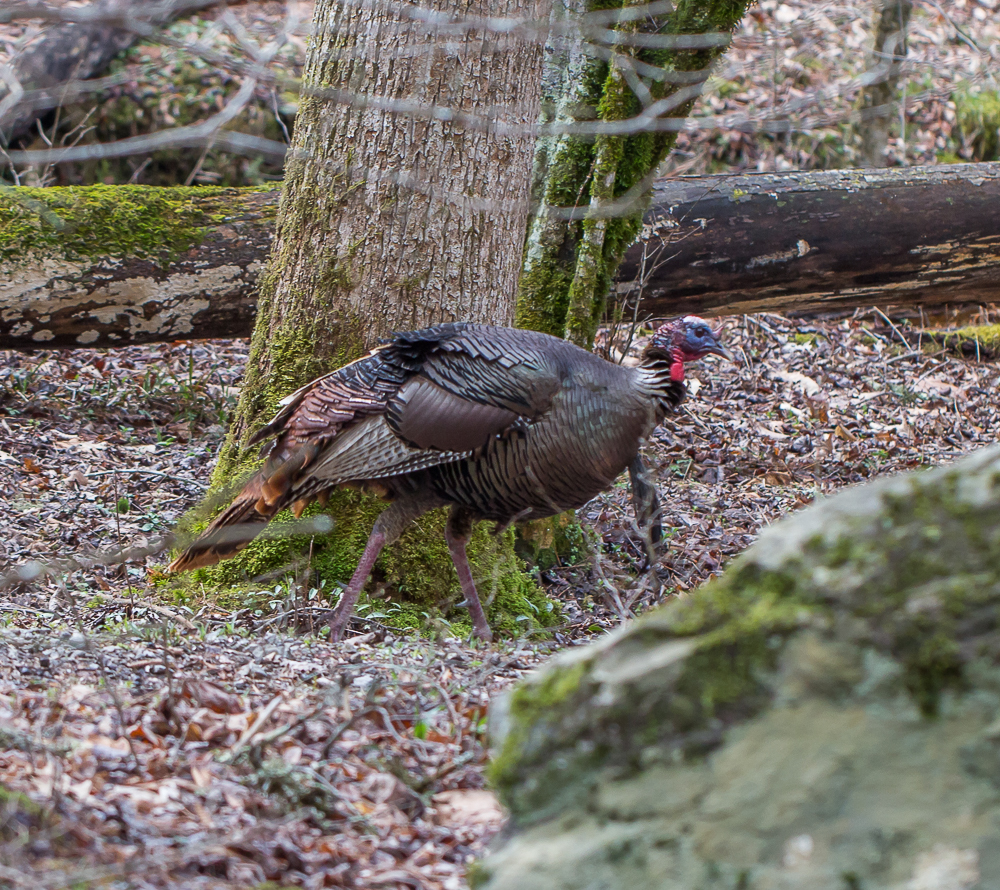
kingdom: Animalia
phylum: Chordata
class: Aves
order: Galliformes
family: Phasianidae
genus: Meleagris
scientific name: Meleagris gallopavo
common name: Wild turkey
